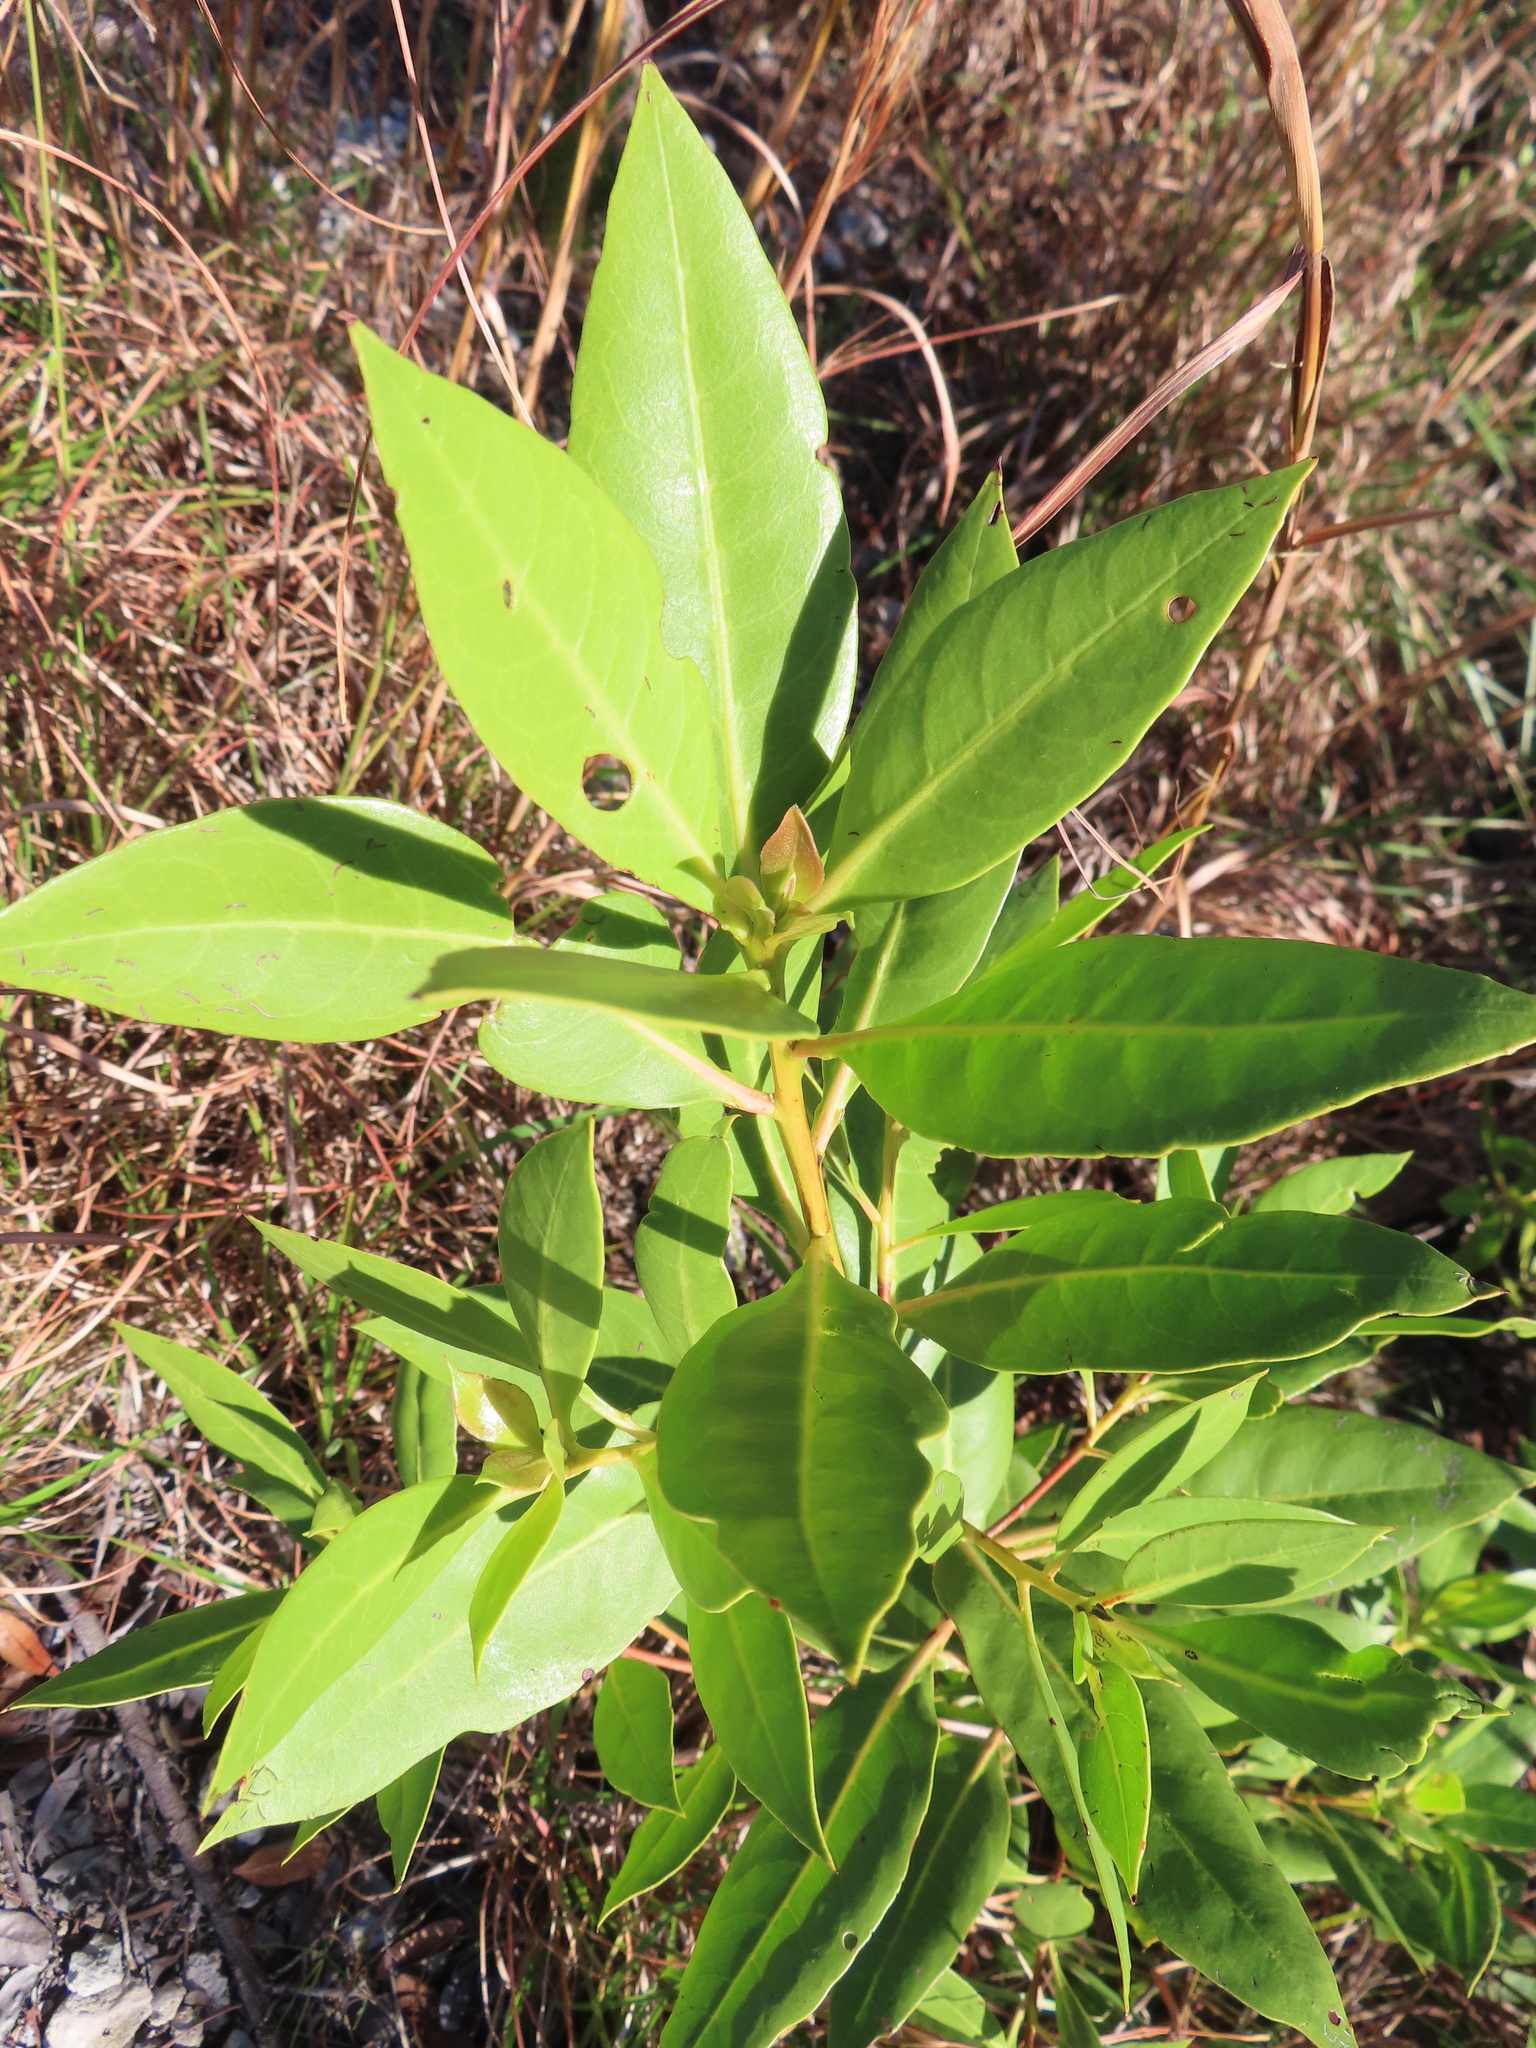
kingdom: Plantae
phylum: Tracheophyta
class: Magnoliopsida
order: Myrtales
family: Combretaceae
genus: Conocarpus
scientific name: Conocarpus erectus
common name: Button mangrove
